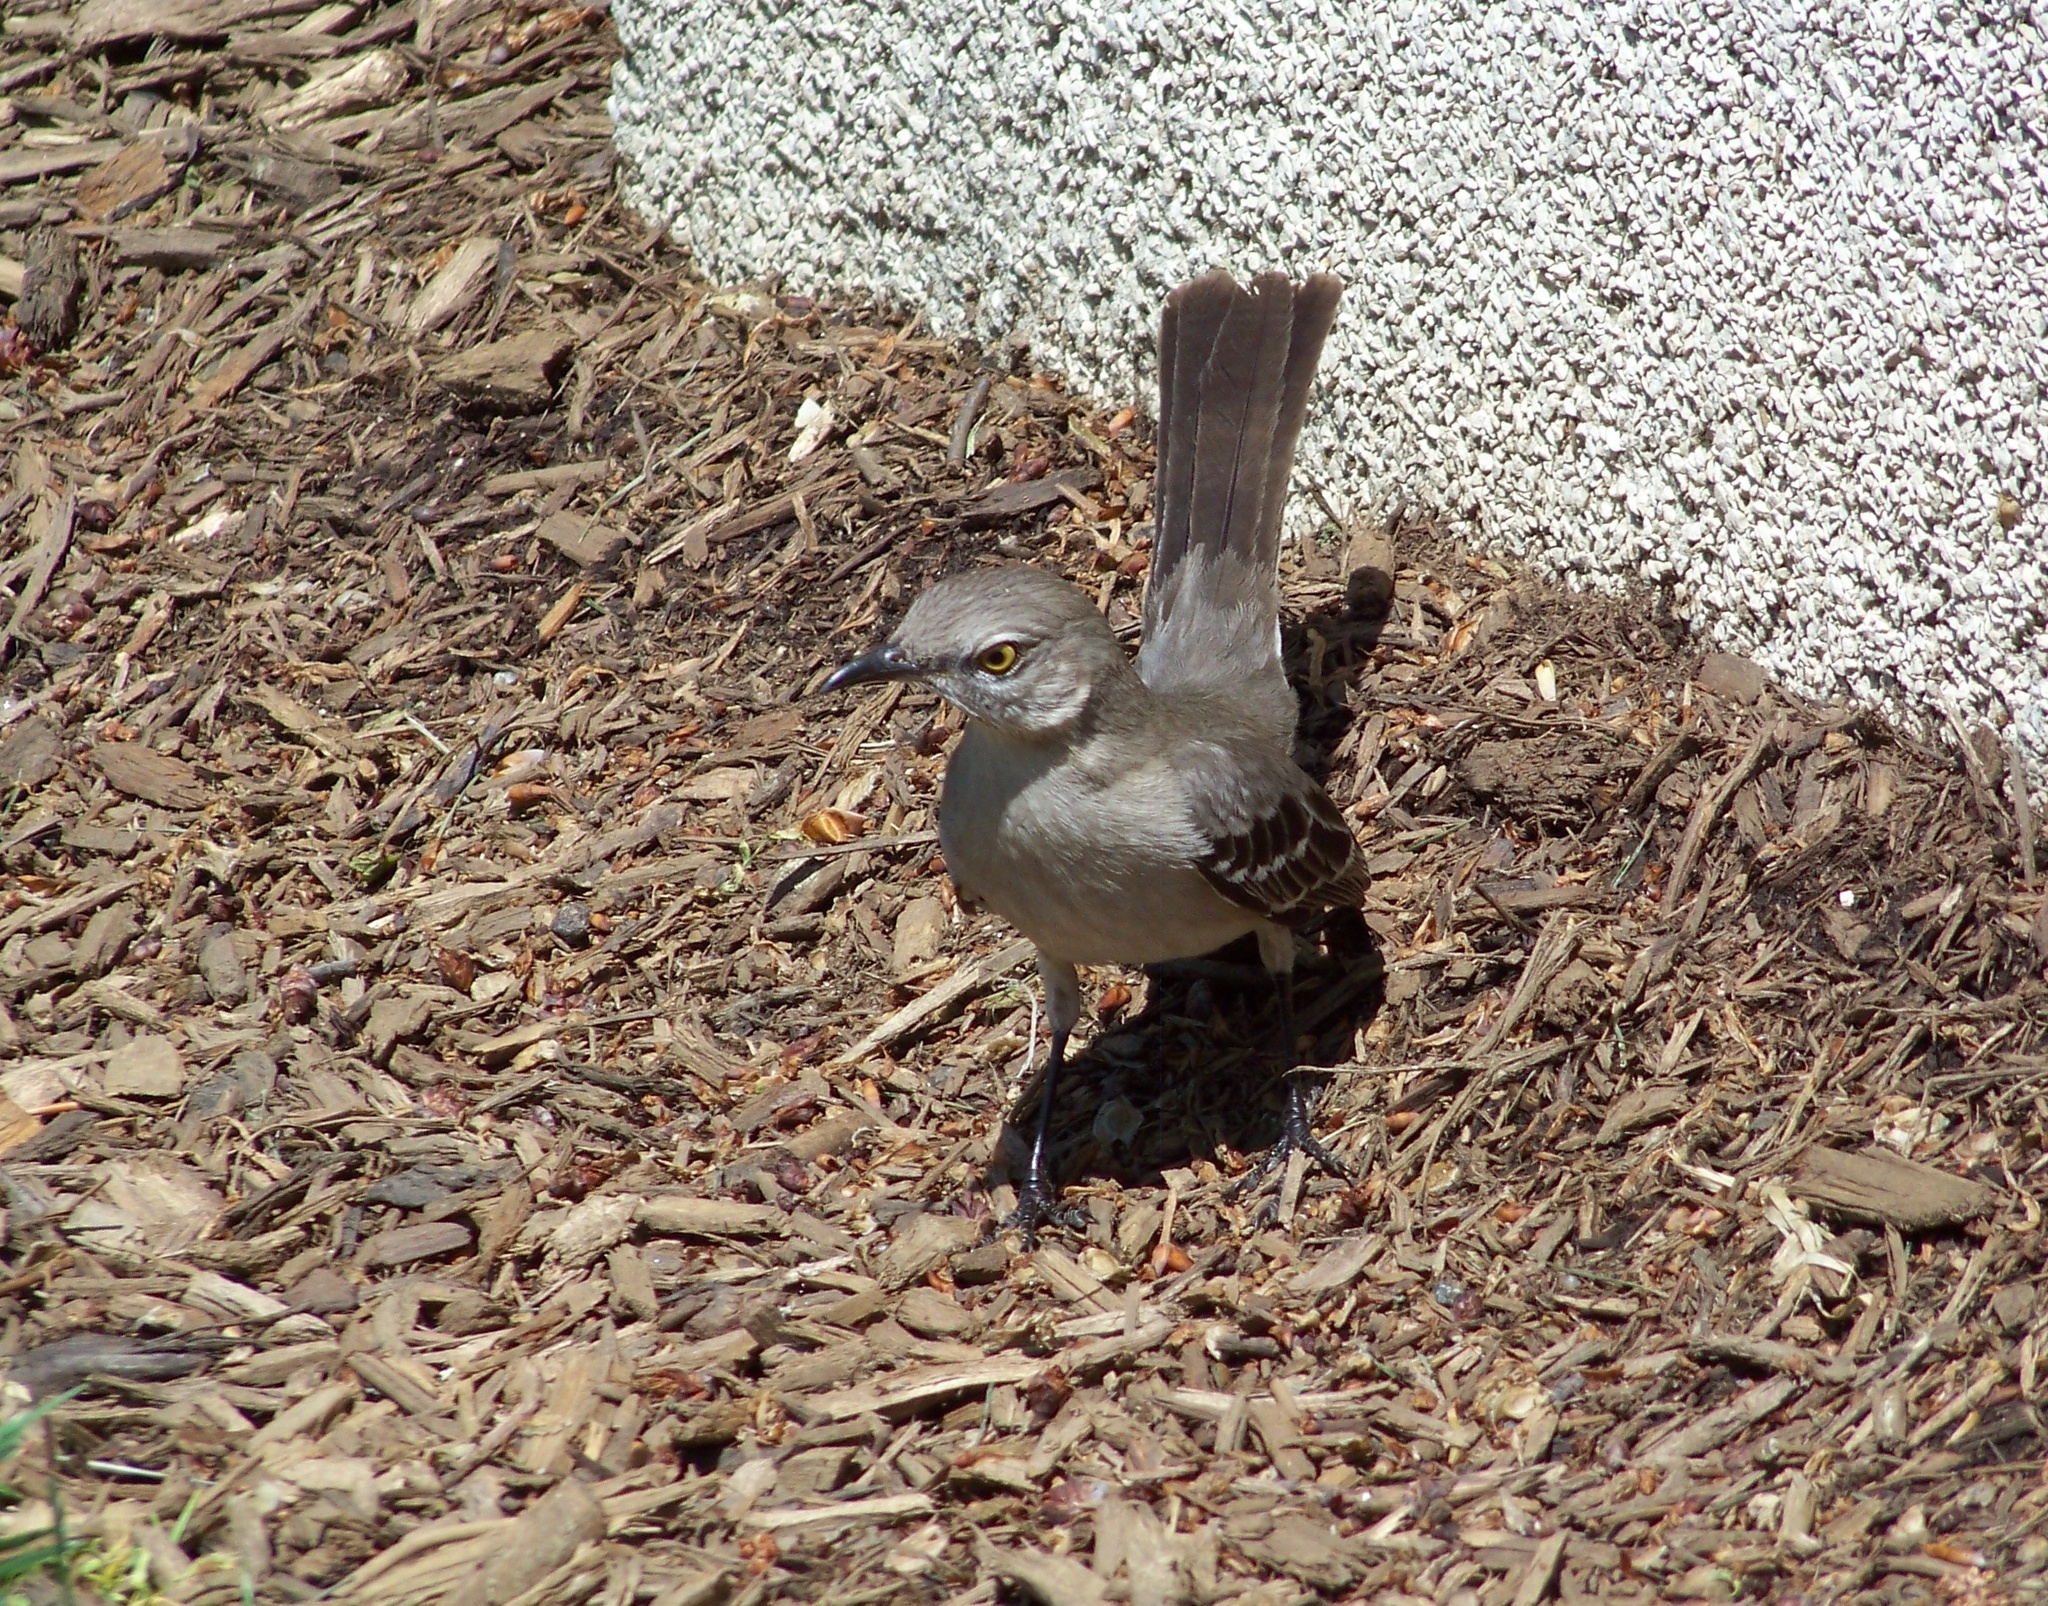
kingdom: Animalia
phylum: Chordata
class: Aves
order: Passeriformes
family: Mimidae
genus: Mimus
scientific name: Mimus polyglottos
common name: Northern mockingbird
